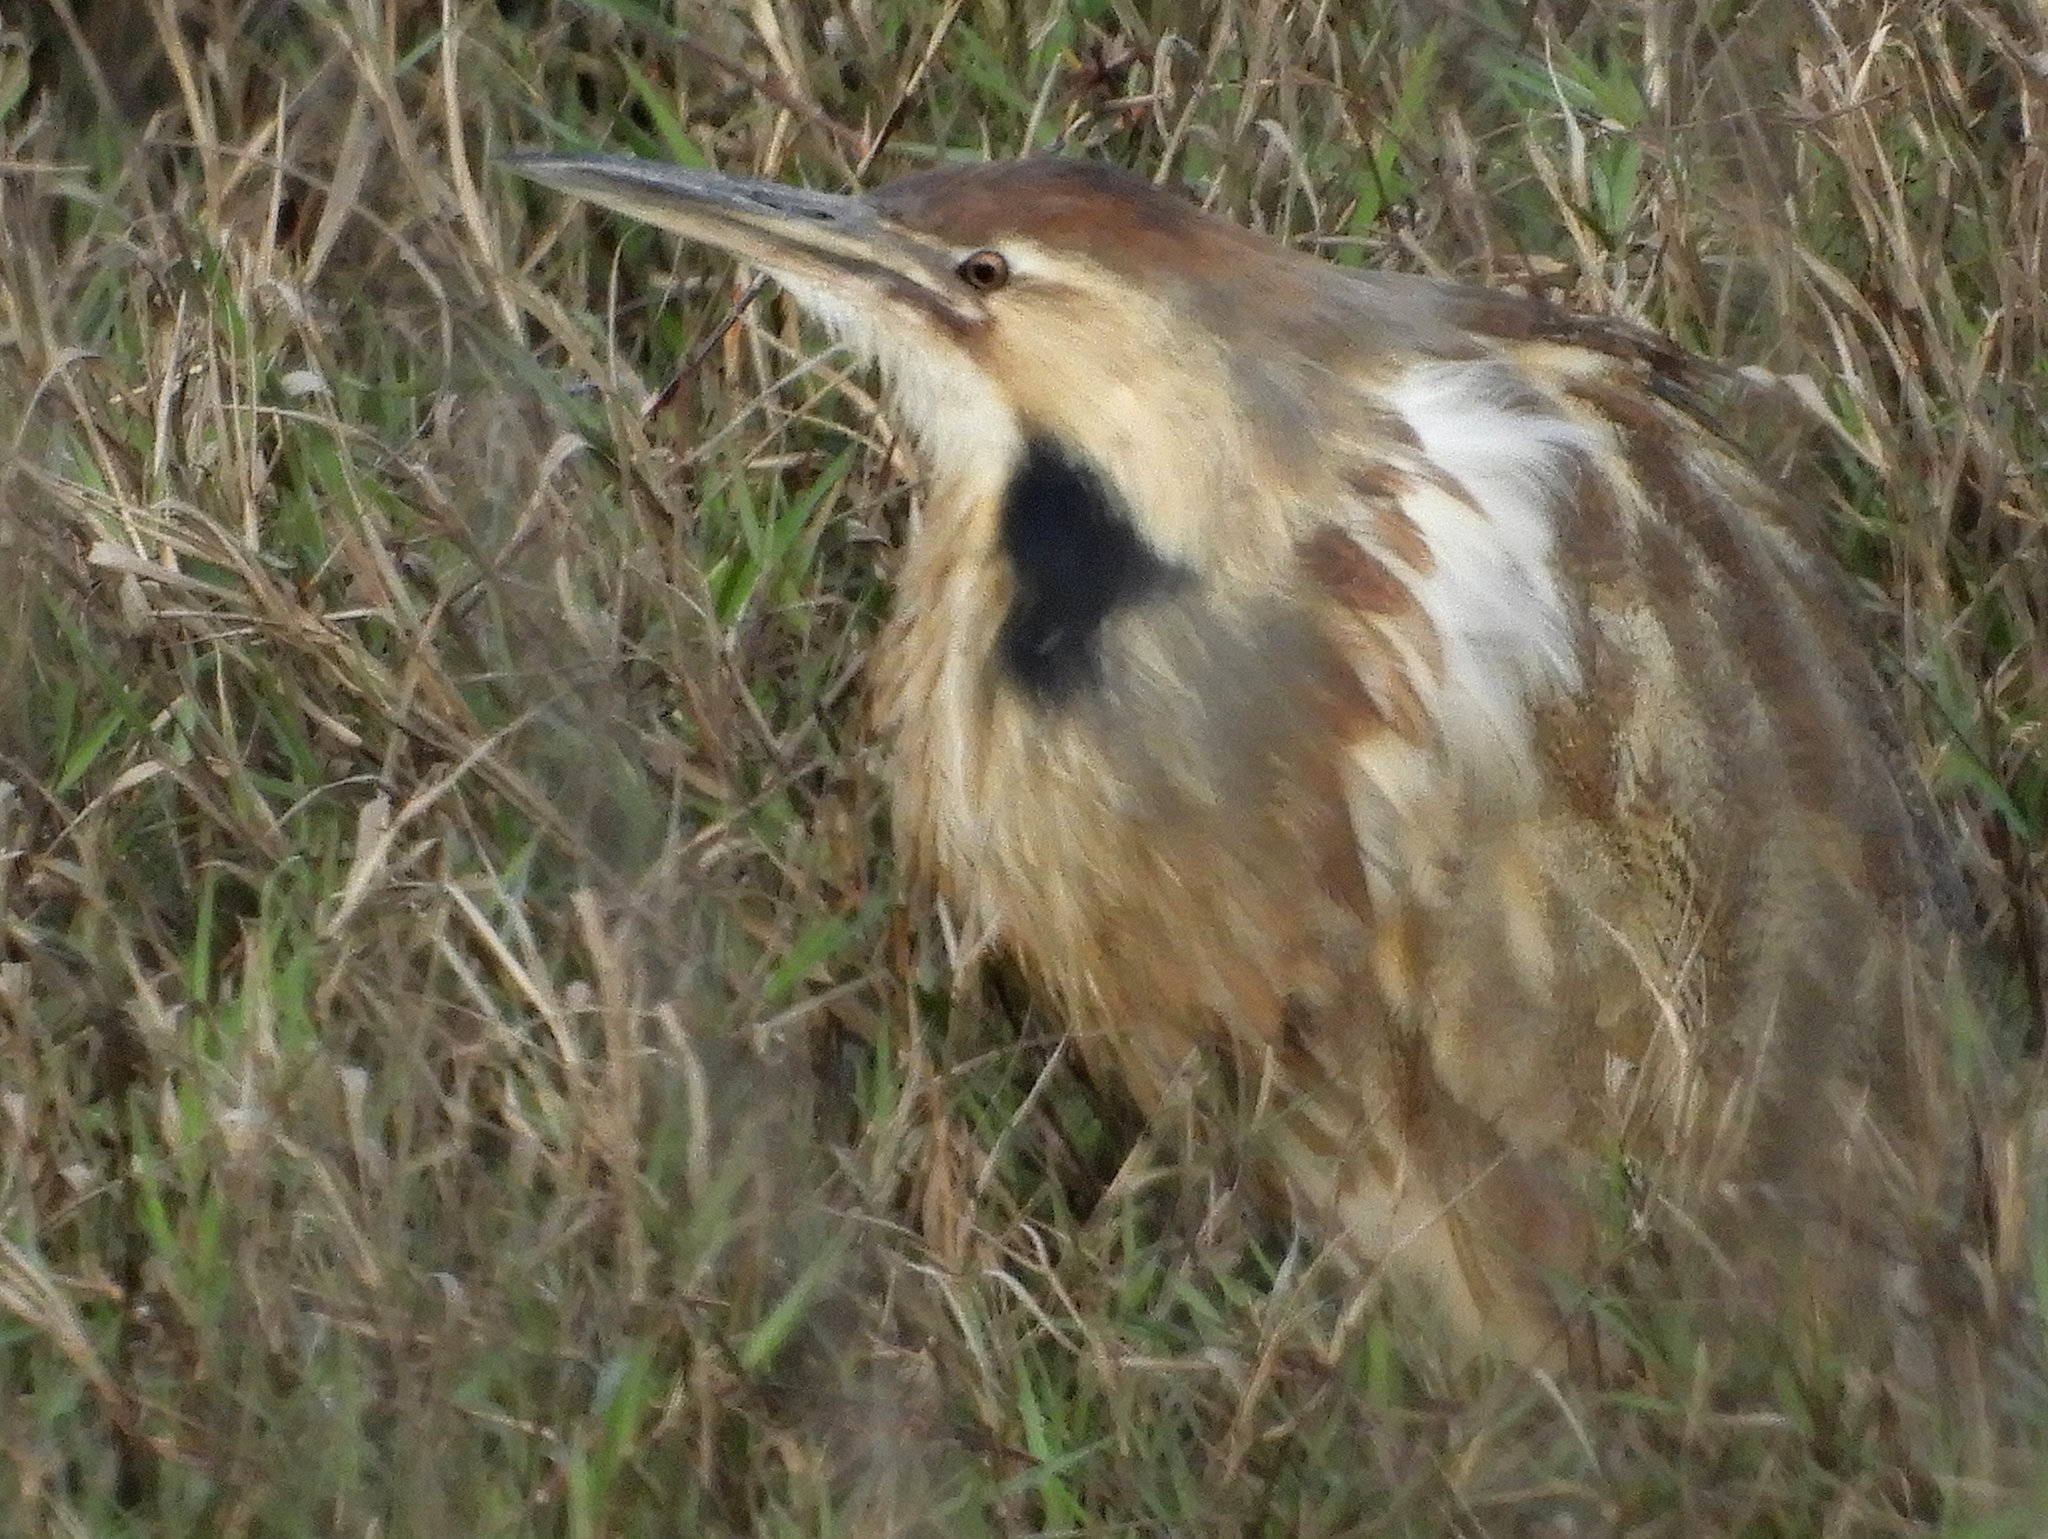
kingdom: Animalia
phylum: Chordata
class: Aves
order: Pelecaniformes
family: Ardeidae
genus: Botaurus
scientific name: Botaurus lentiginosus
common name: American bittern
